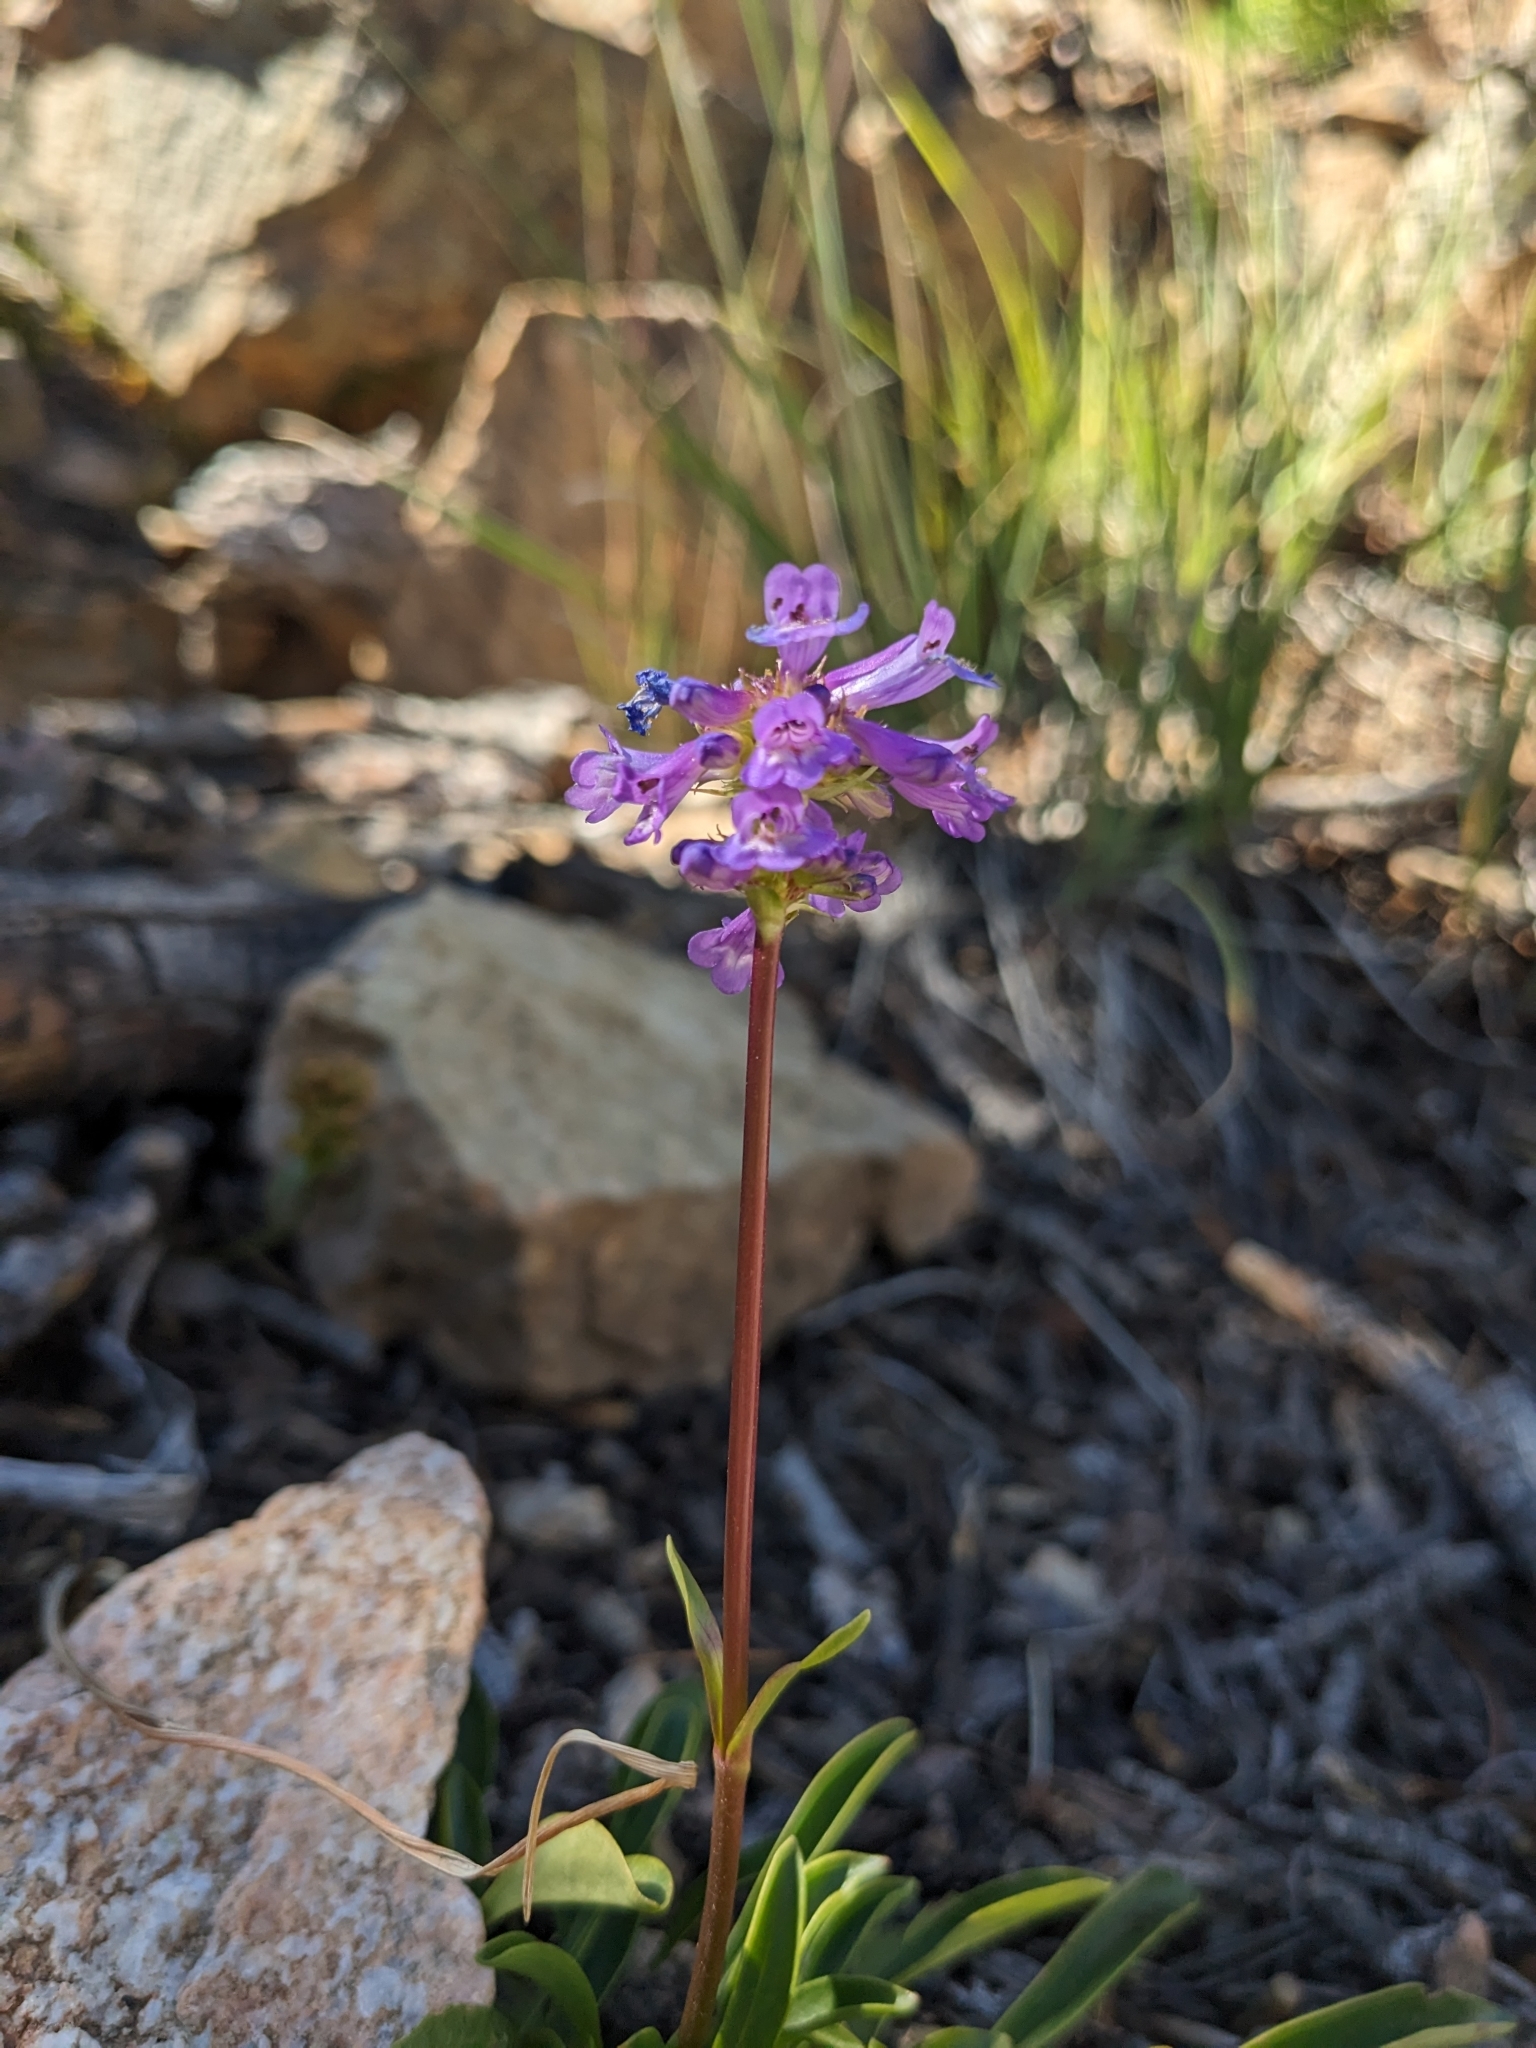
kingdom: Plantae
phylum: Tracheophyta
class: Magnoliopsida
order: Lamiales
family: Plantaginaceae
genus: Penstemon
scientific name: Penstemon procerus
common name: Small-flower penstemon
